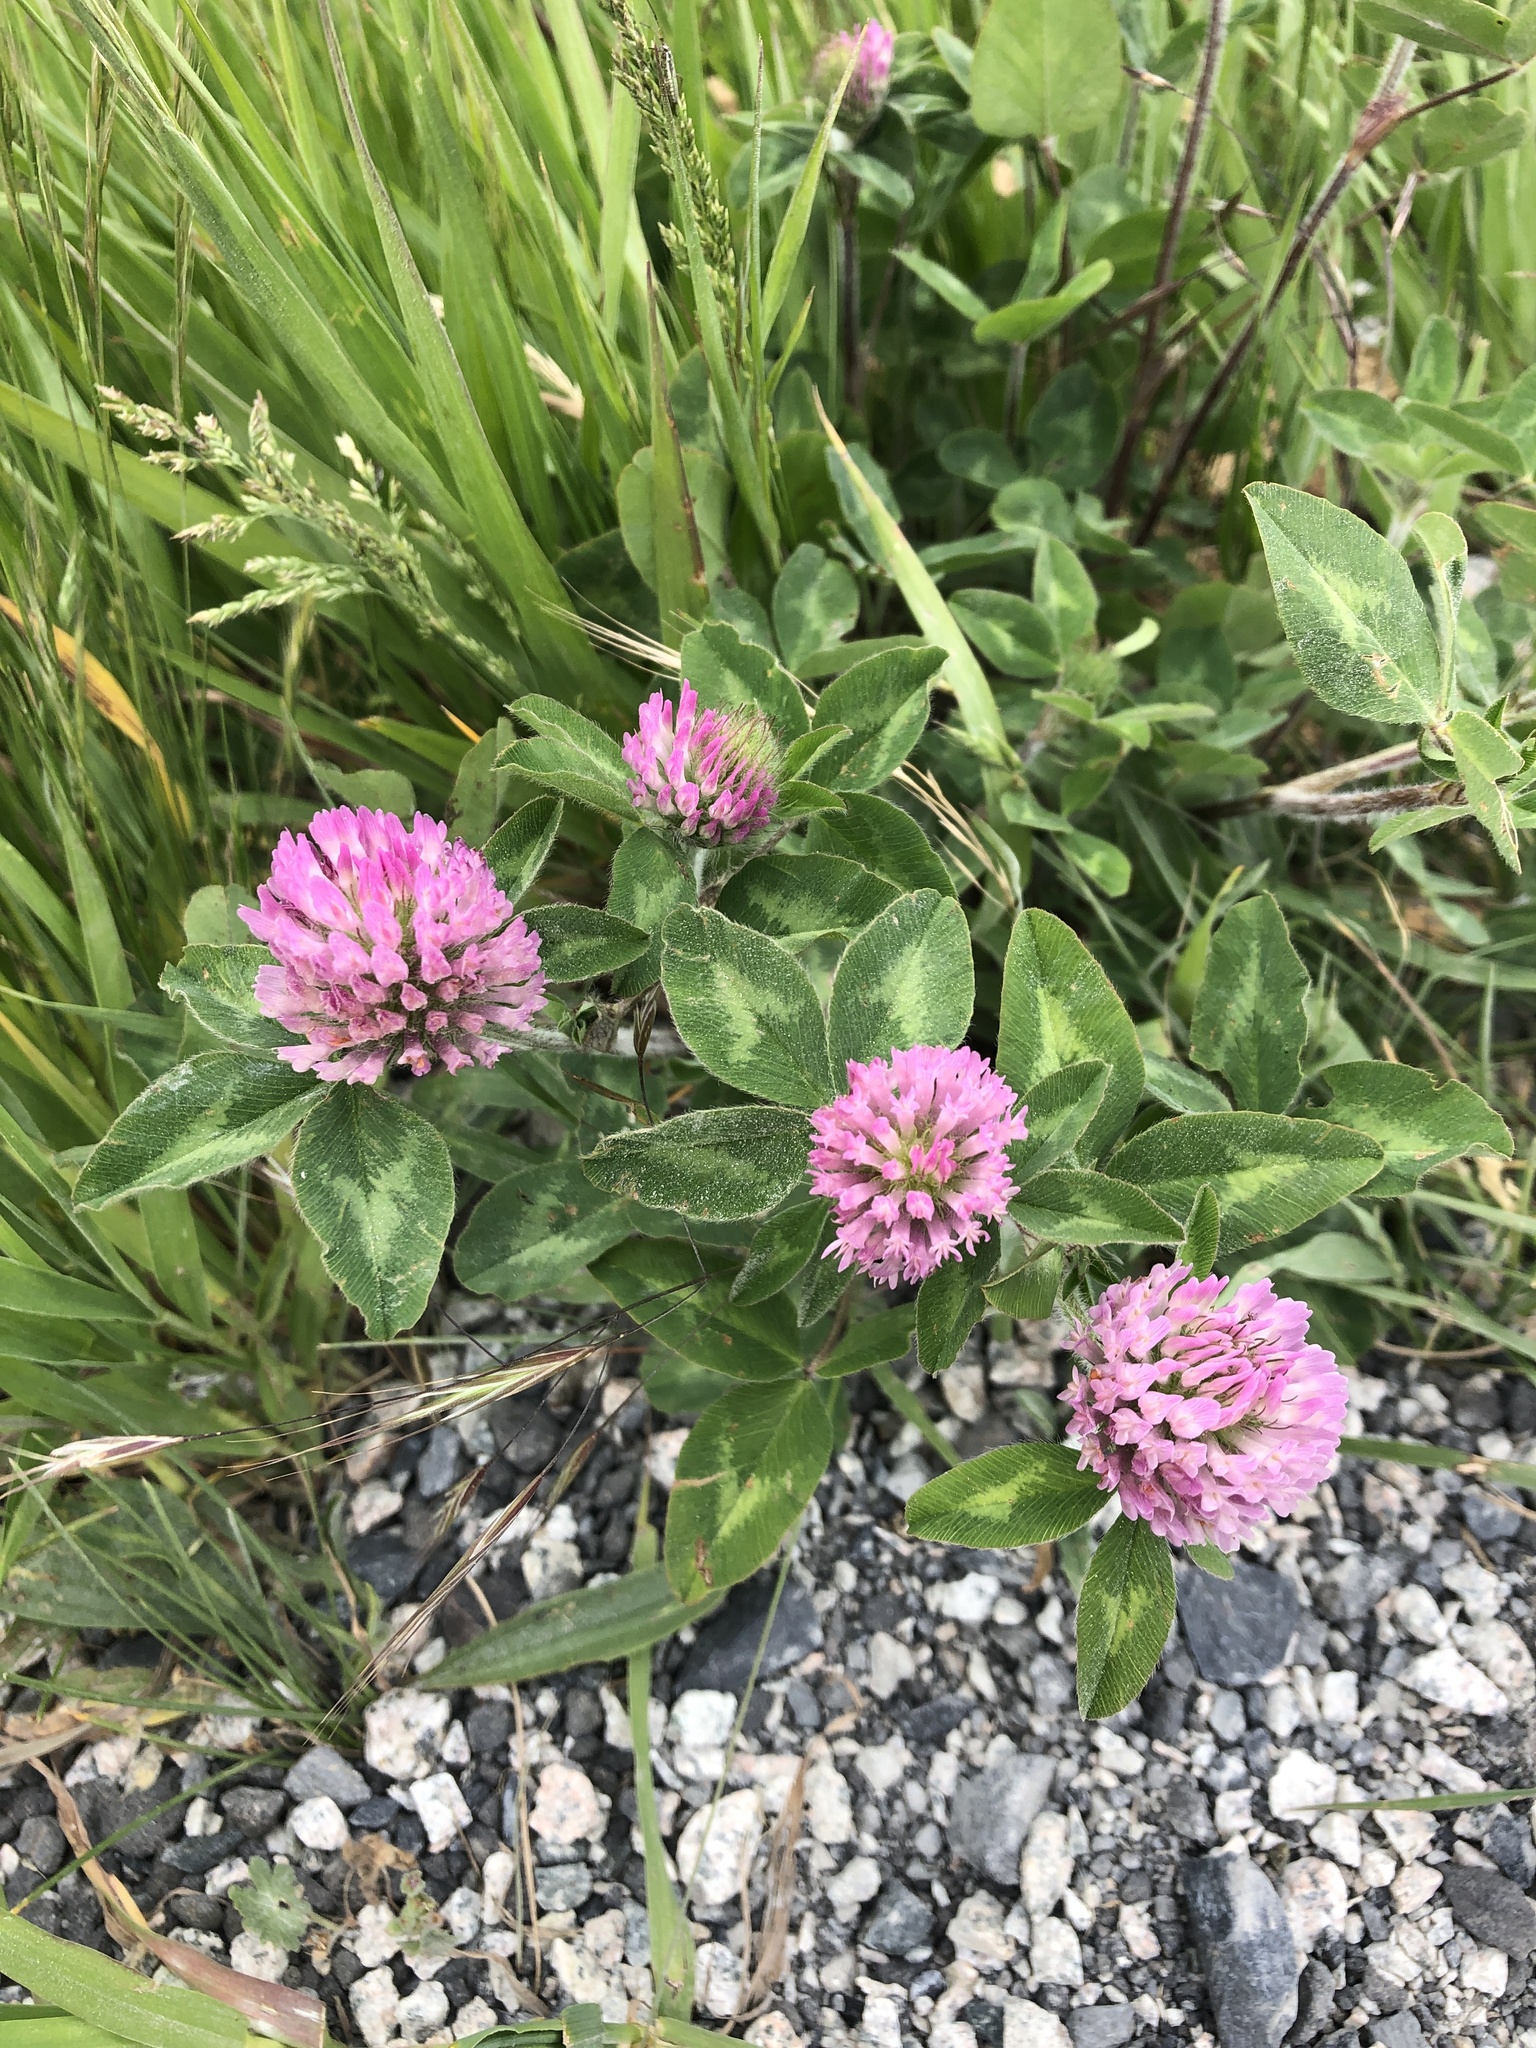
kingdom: Plantae
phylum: Tracheophyta
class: Magnoliopsida
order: Fabales
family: Fabaceae
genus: Trifolium
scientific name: Trifolium pratense
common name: Red clover
